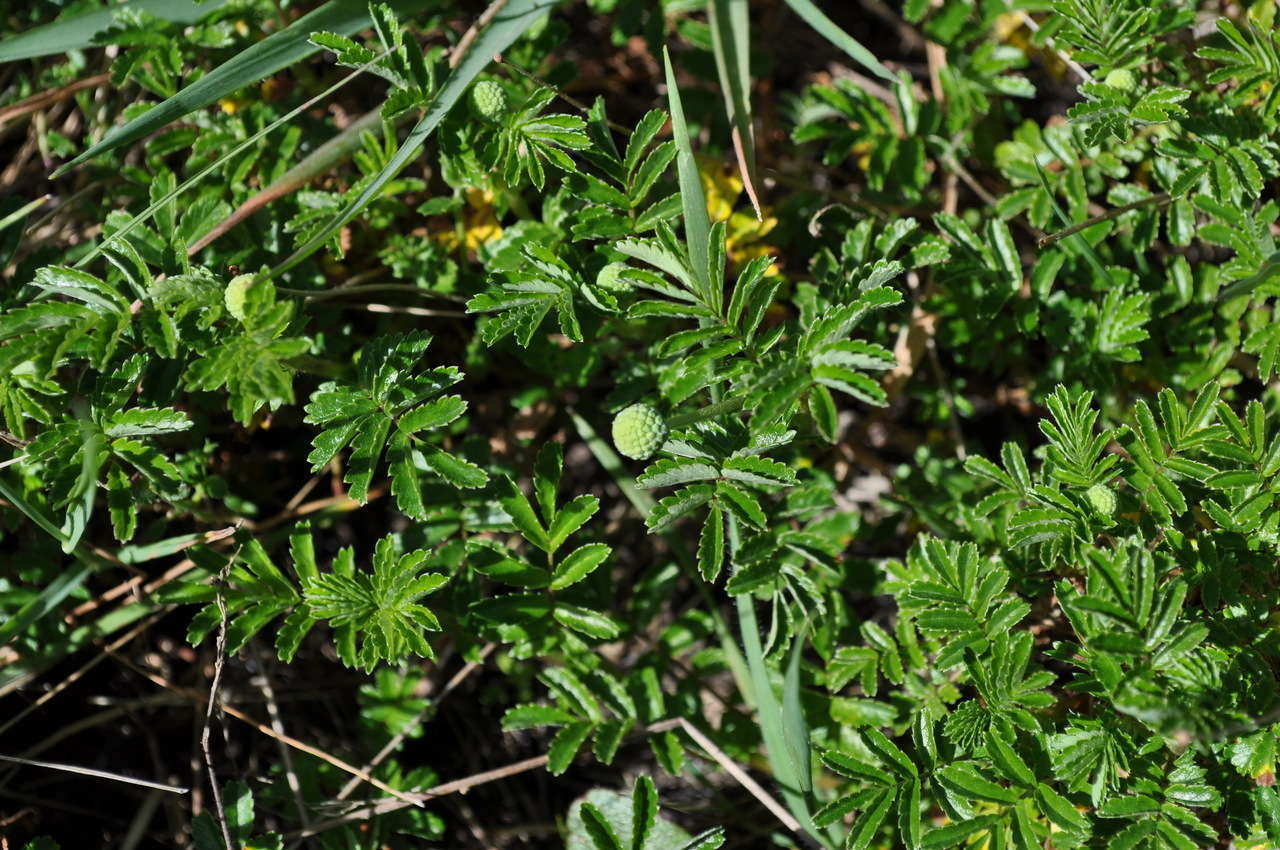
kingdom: Plantae
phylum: Tracheophyta
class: Magnoliopsida
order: Rosales
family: Rosaceae
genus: Acaena
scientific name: Acaena novae-zelandiae
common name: Pirri-pirri-bur
